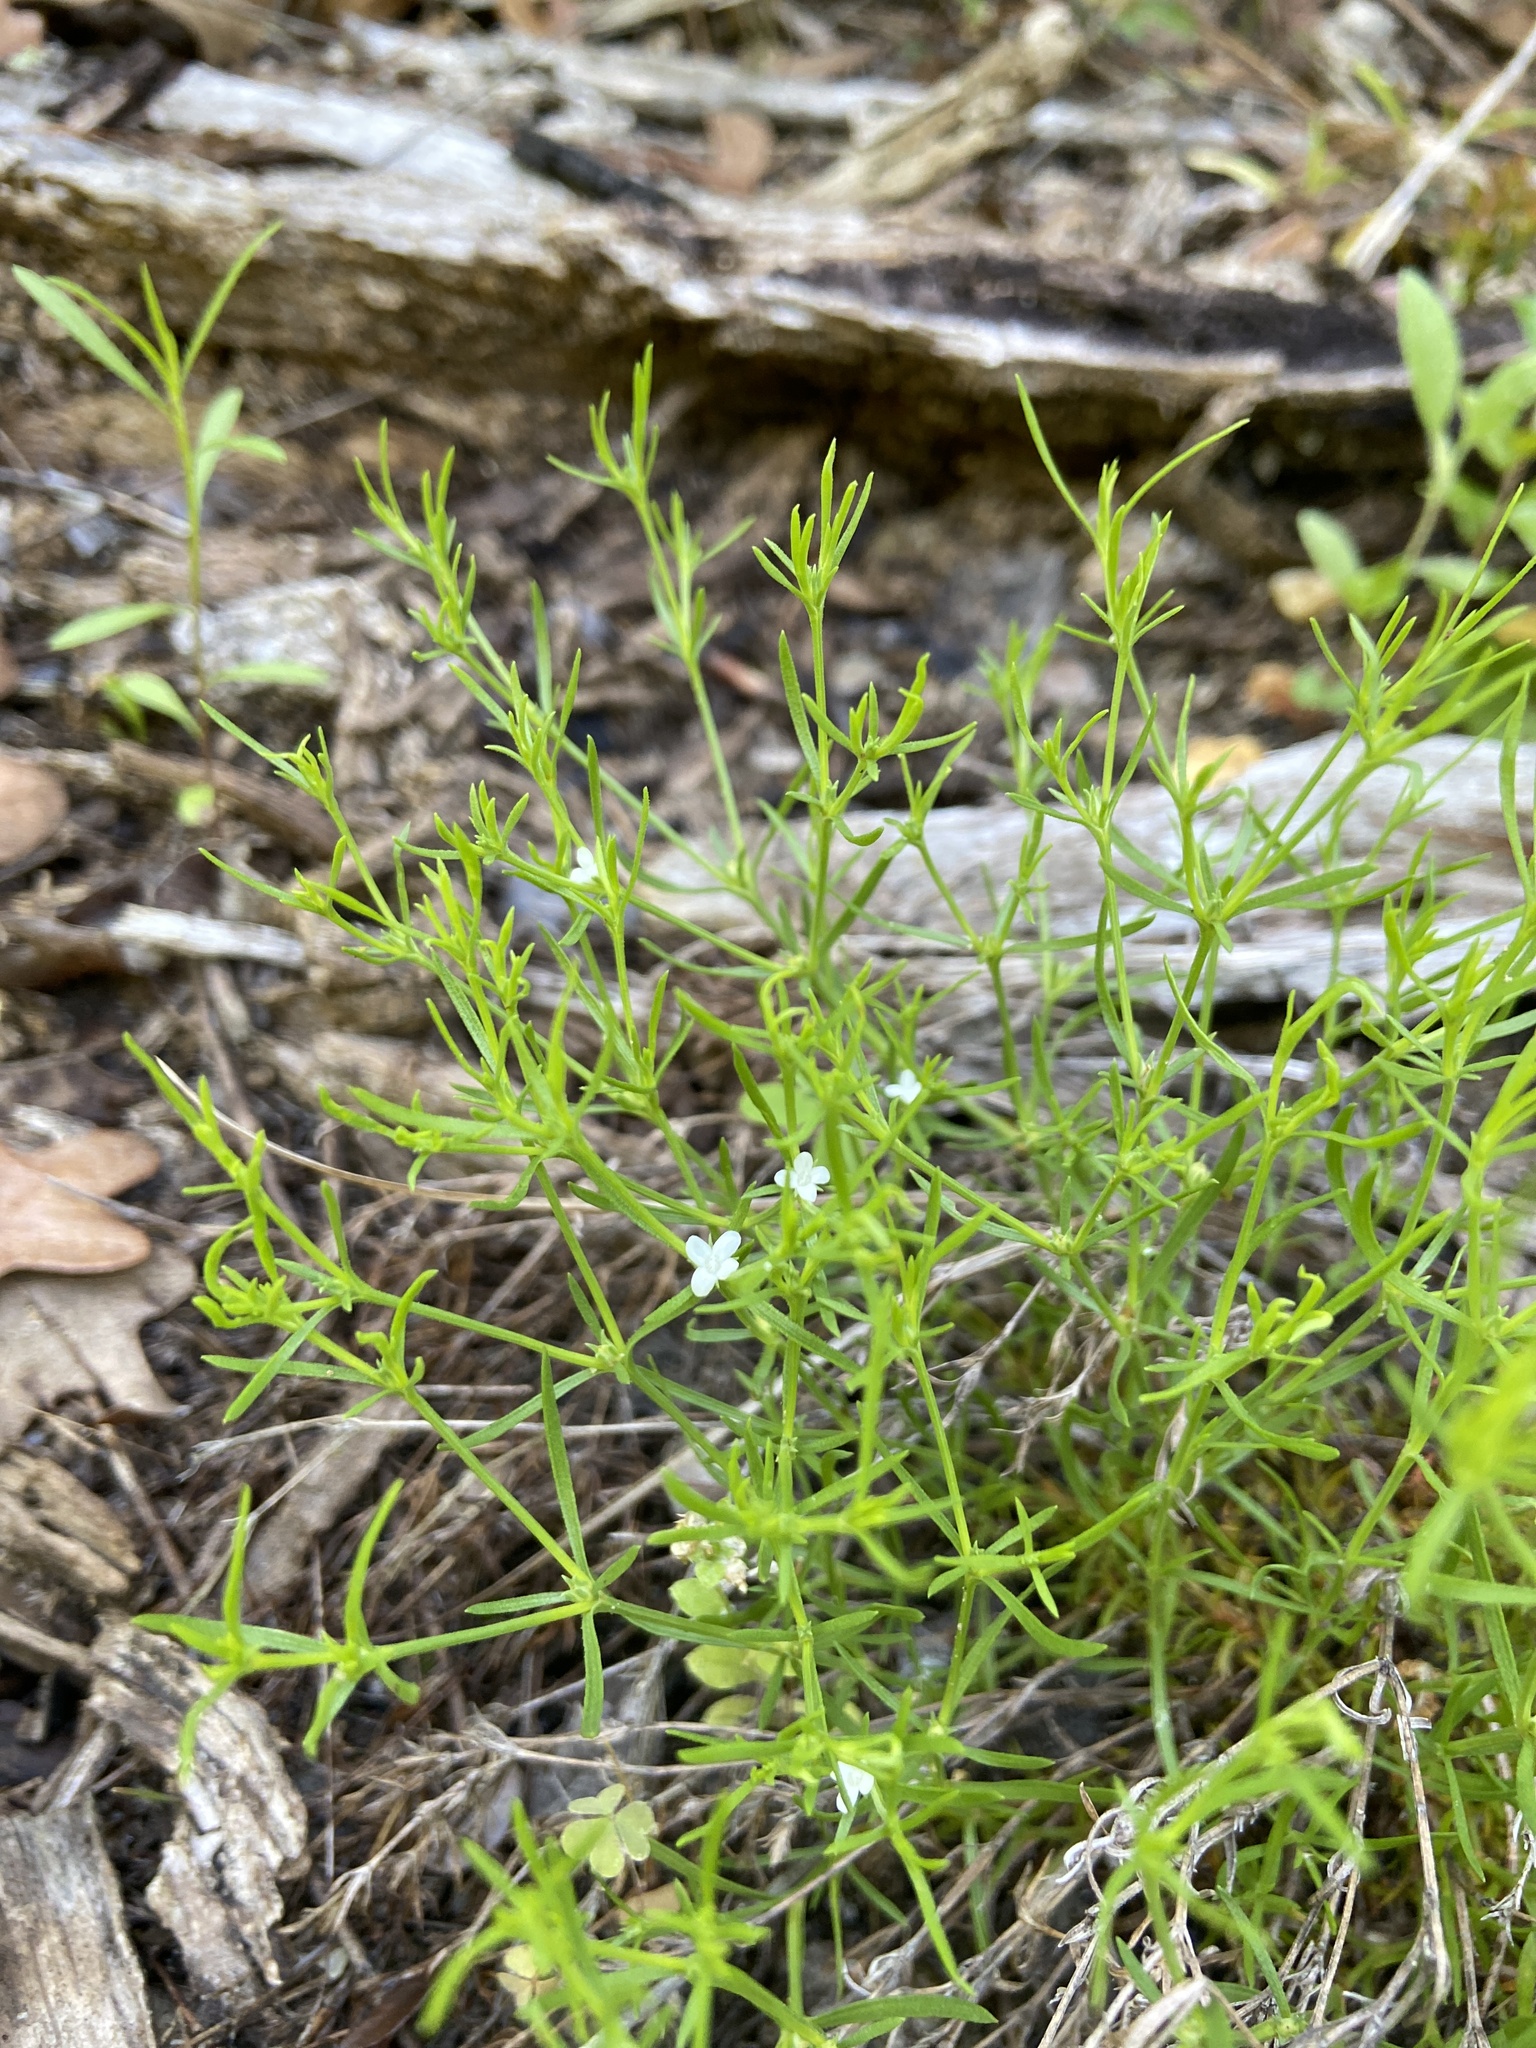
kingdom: Plantae
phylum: Tracheophyta
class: Magnoliopsida
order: Lamiales
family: Tetrachondraceae
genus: Polypremum
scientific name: Polypremum procumbens
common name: Juniper-leaf
